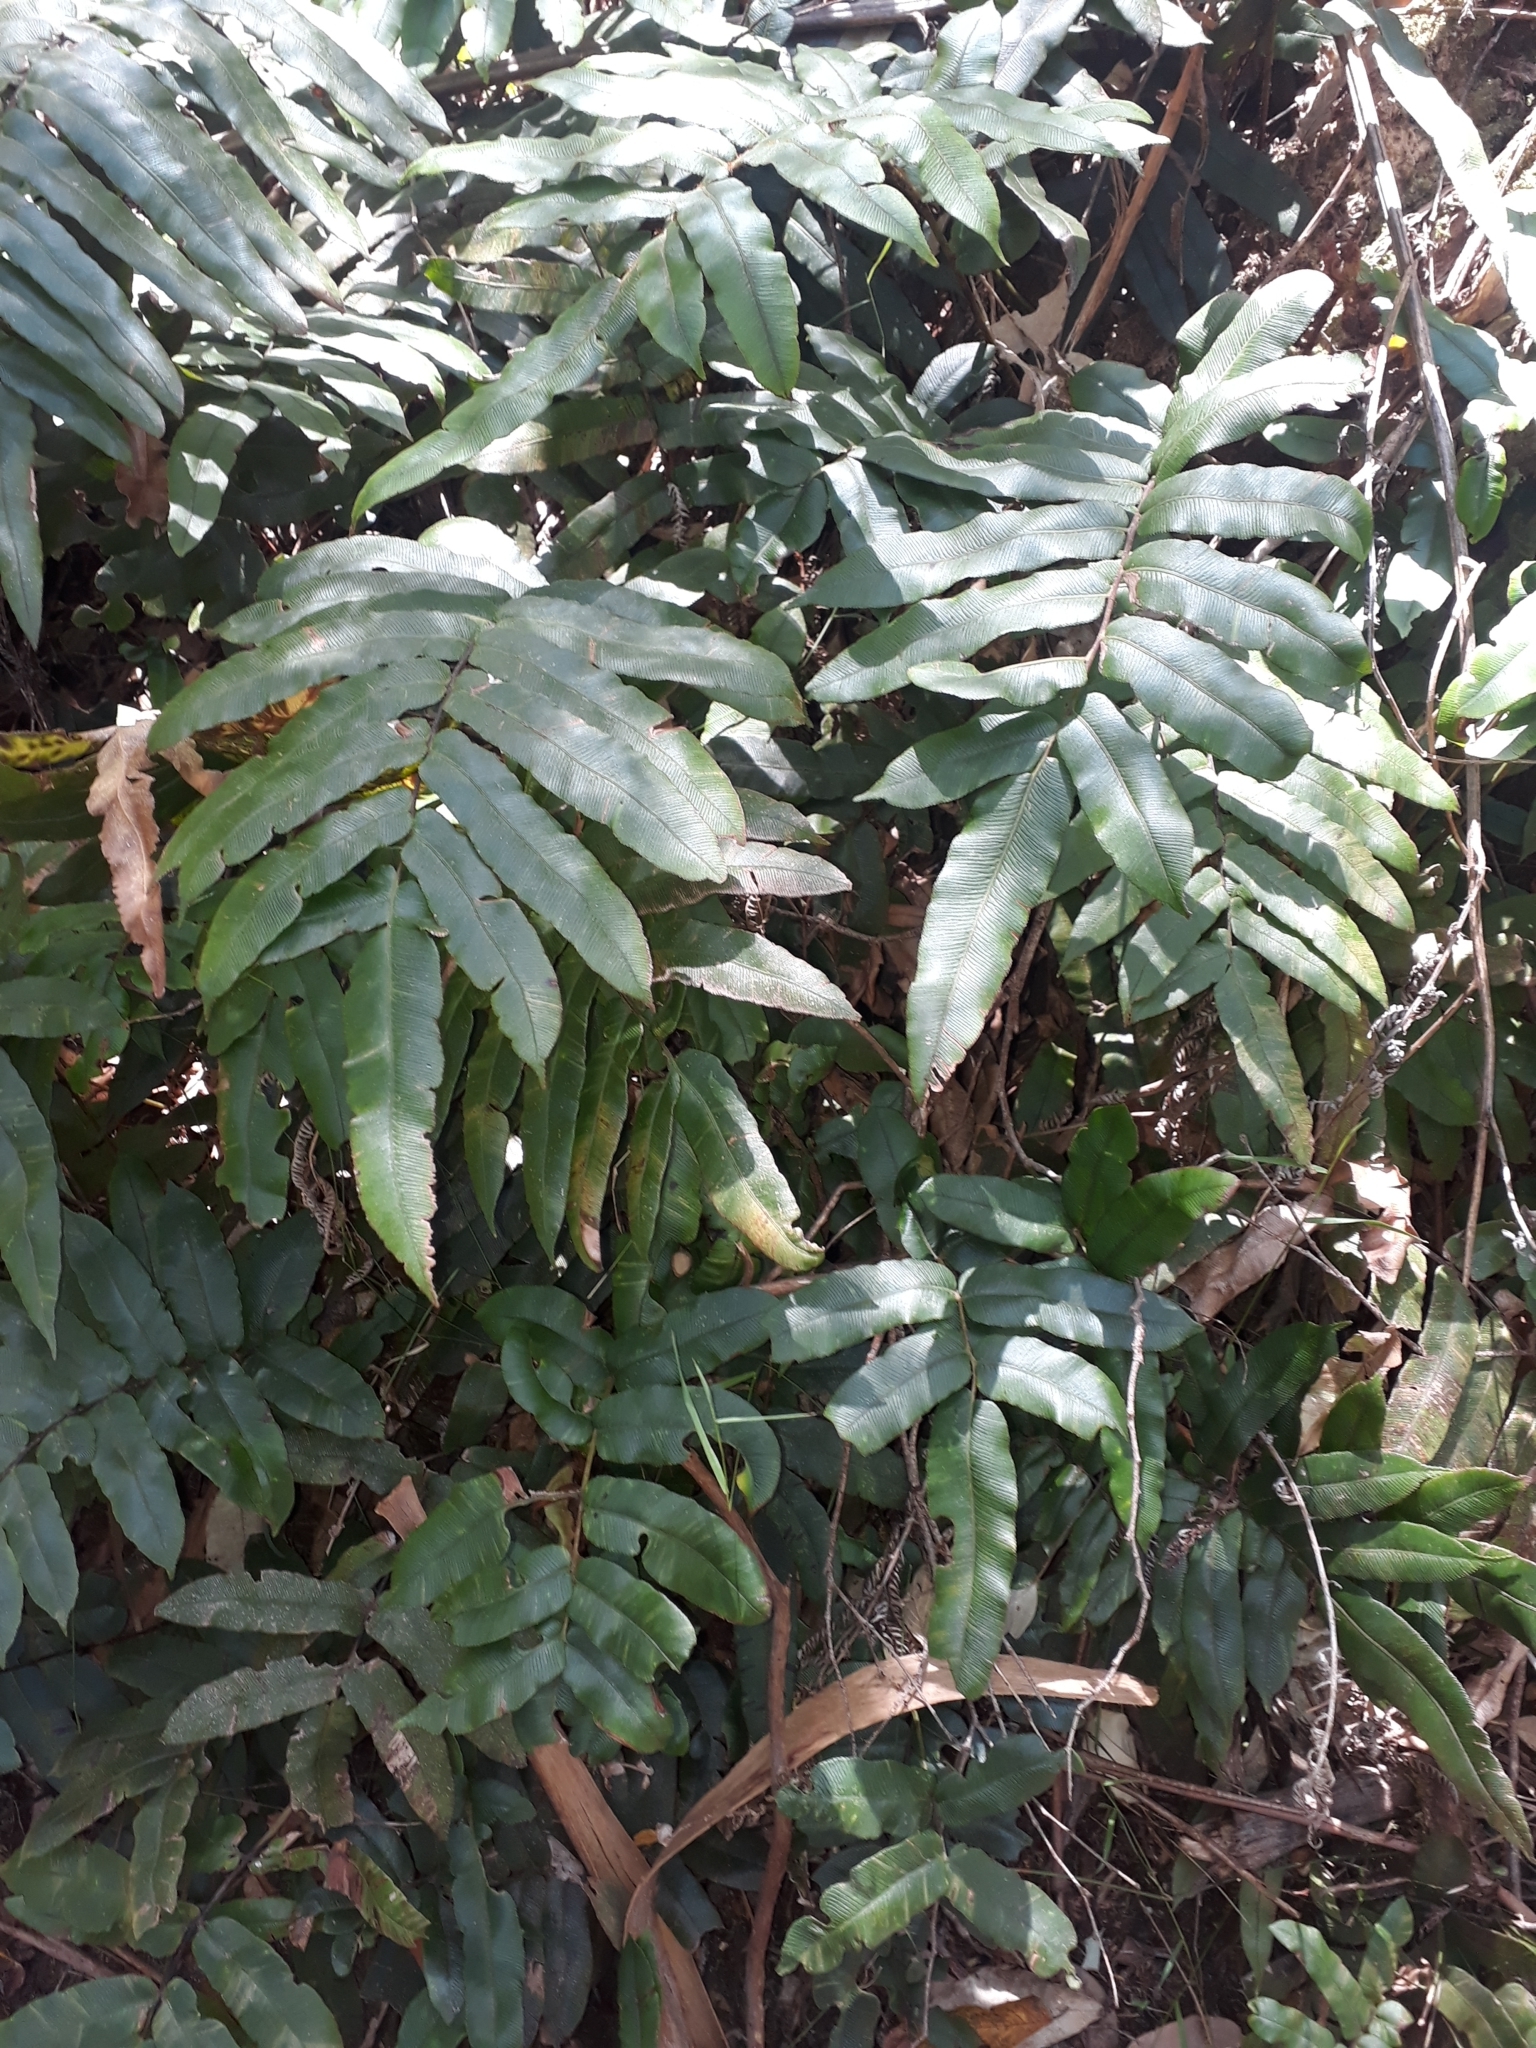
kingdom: Plantae
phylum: Tracheophyta
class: Polypodiopsida
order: Polypodiales
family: Blechnaceae
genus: Parablechnum
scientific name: Parablechnum wattsii
